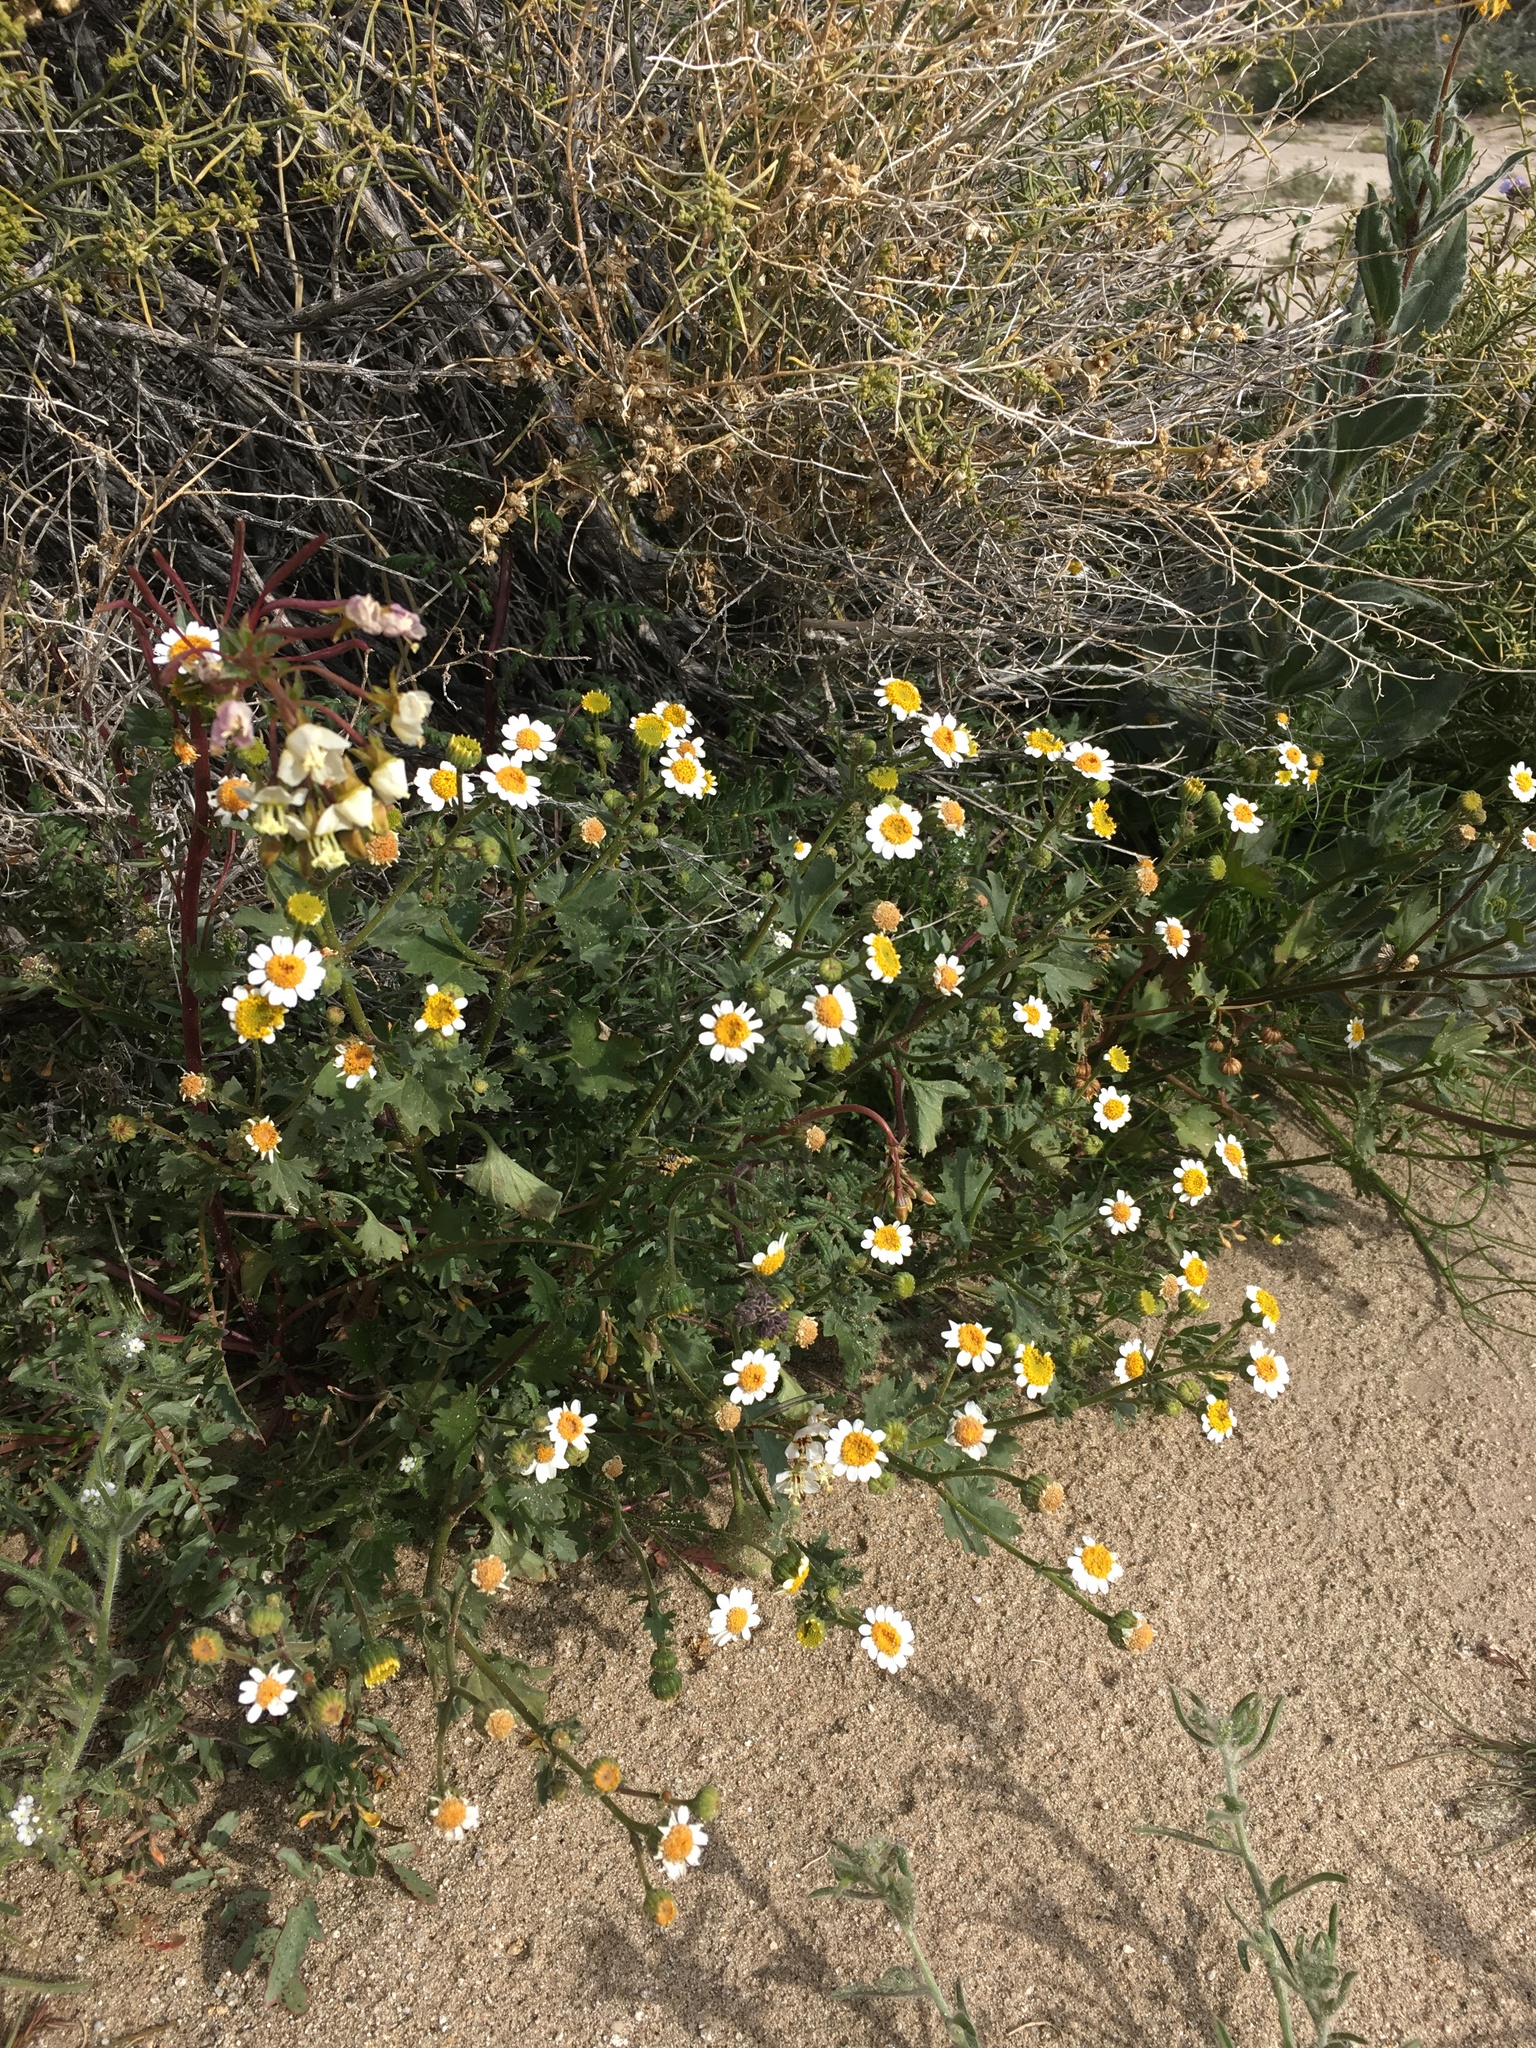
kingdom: Plantae
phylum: Tracheophyta
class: Magnoliopsida
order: Asterales
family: Asteraceae
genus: Laphamia
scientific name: Laphamia emoryi
